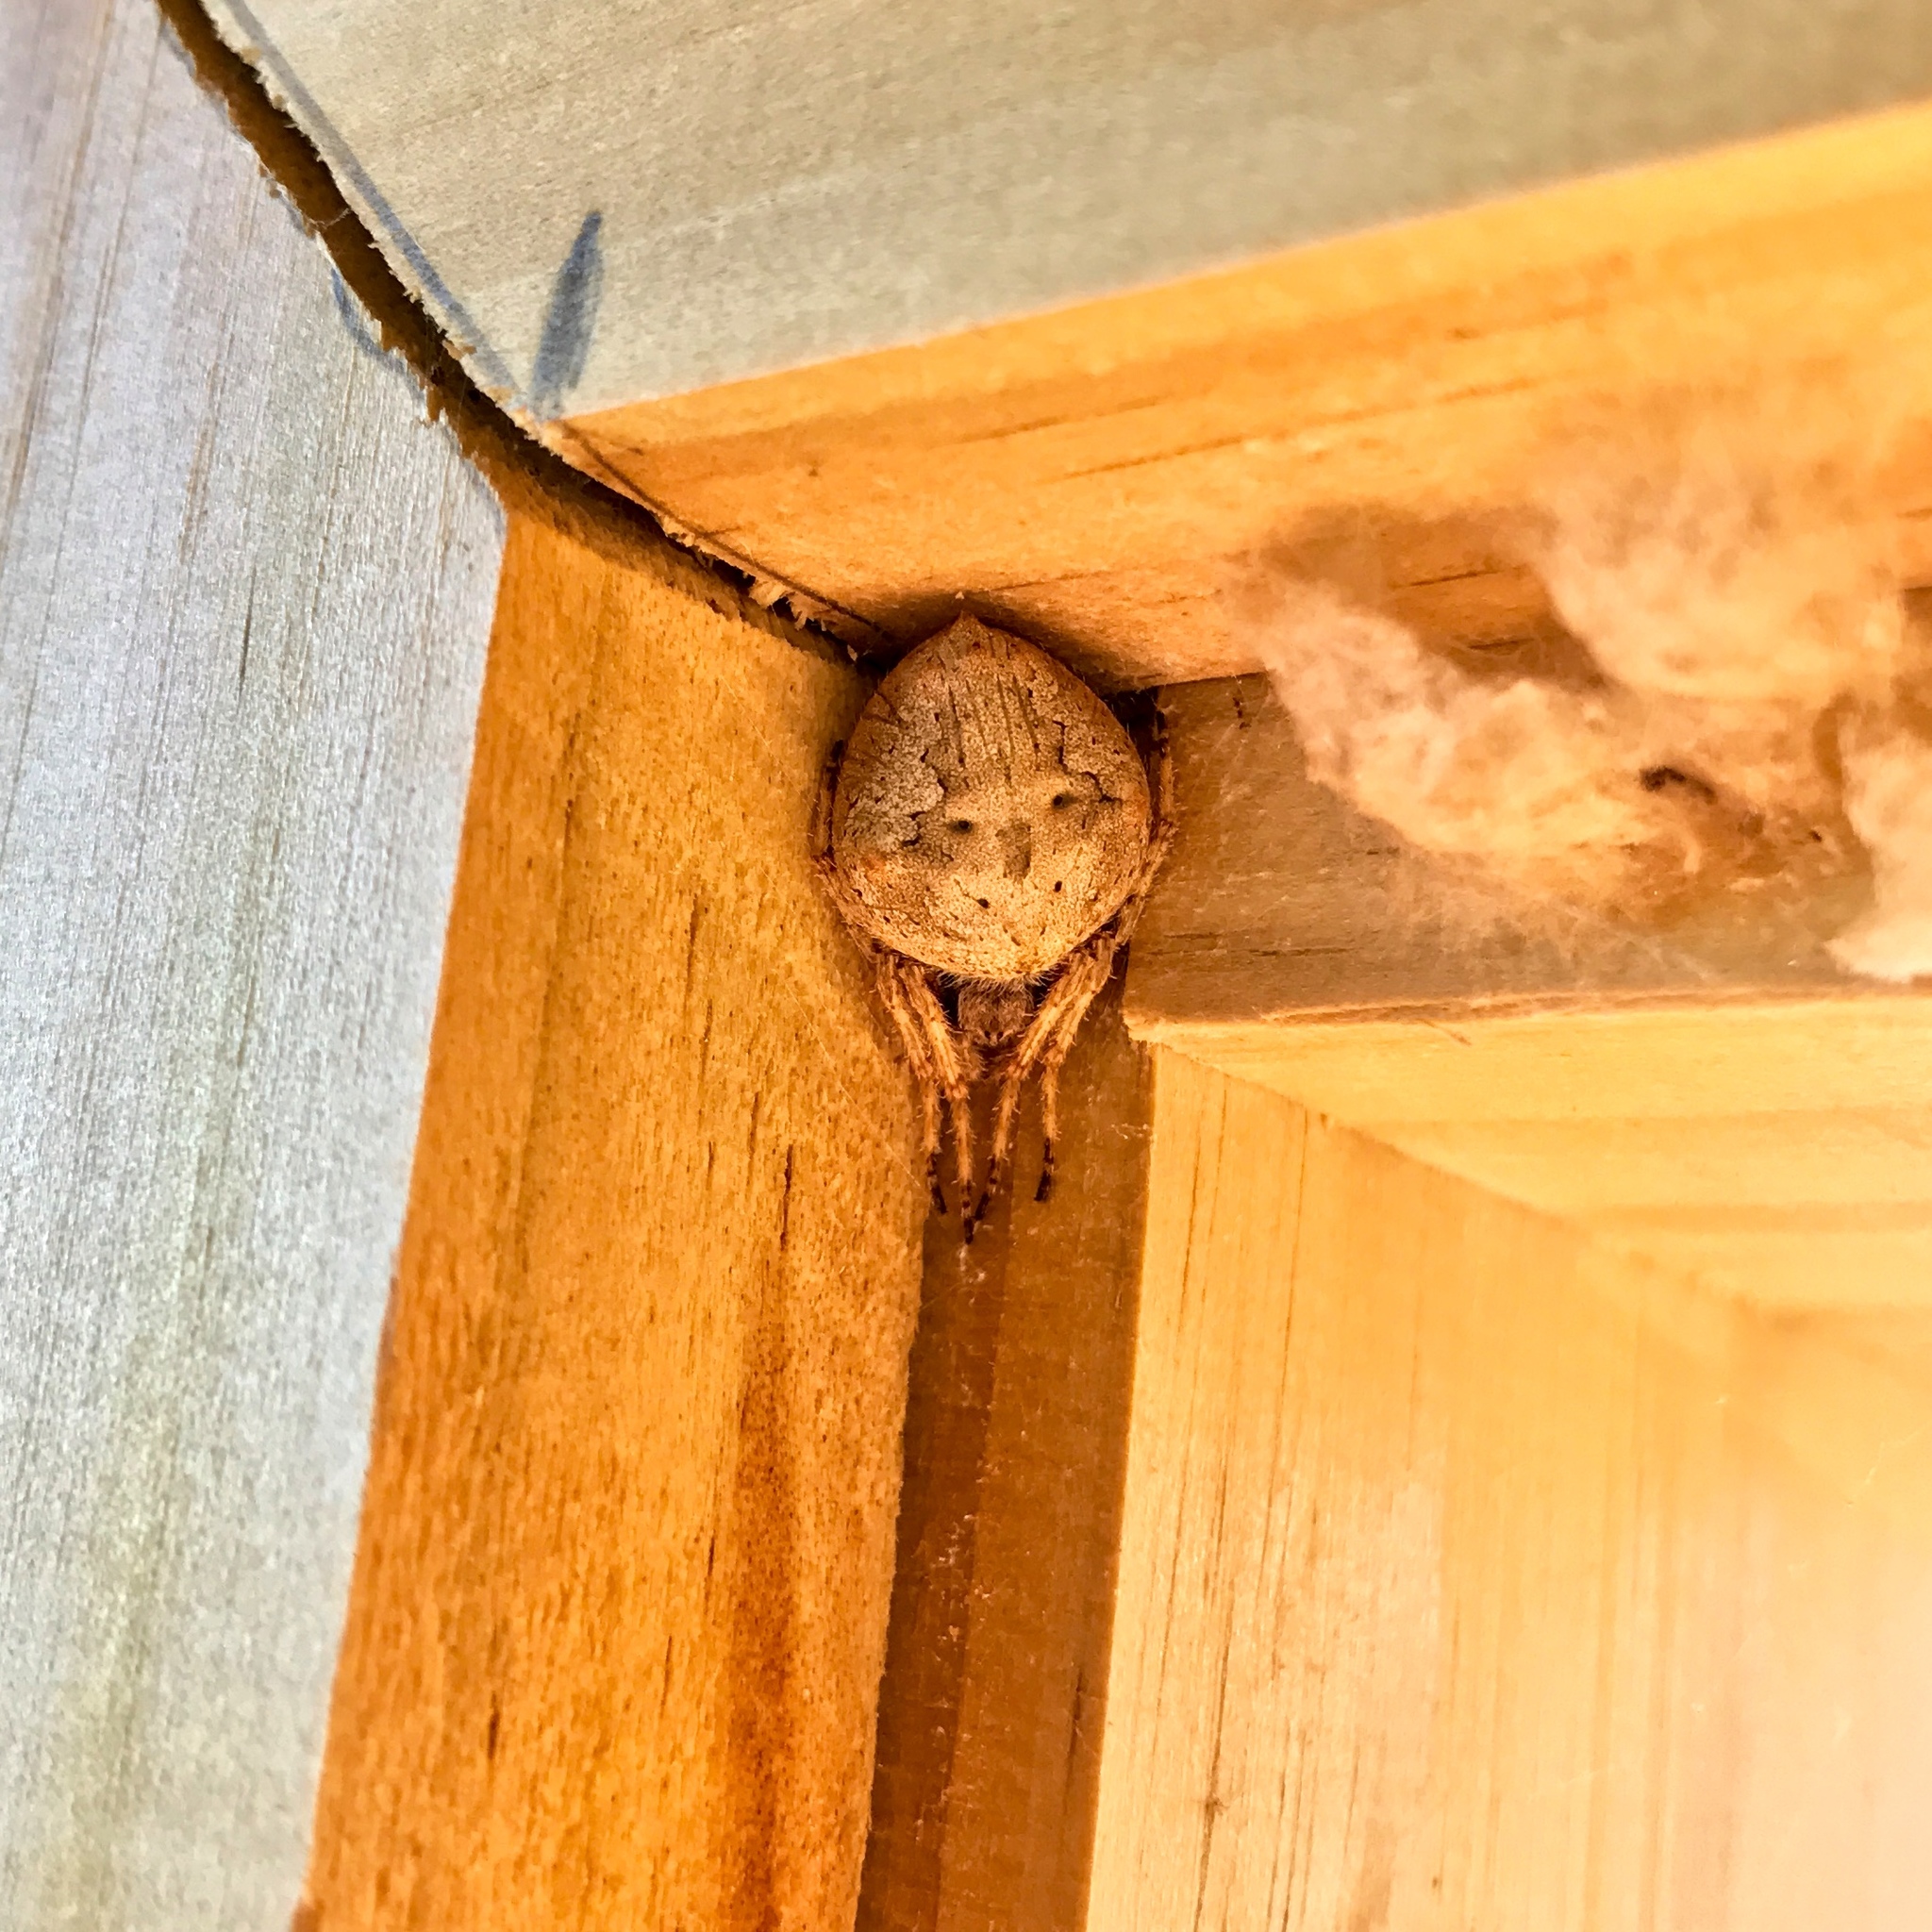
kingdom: Animalia
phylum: Arthropoda
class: Arachnida
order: Araneae
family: Araneidae
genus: Eriophora
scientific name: Eriophora pustulosa
